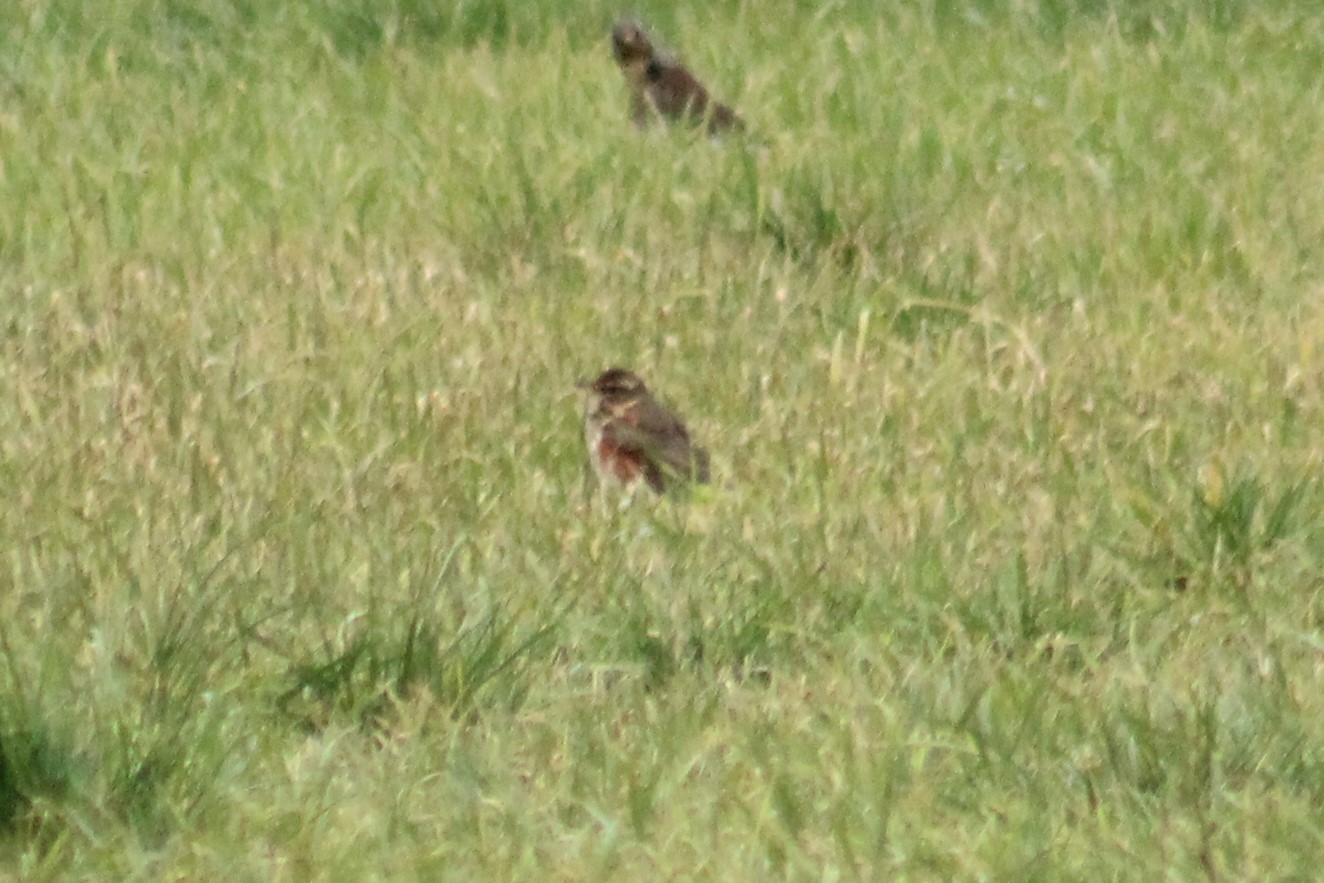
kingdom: Animalia
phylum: Chordata
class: Aves
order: Passeriformes
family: Turdidae
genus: Turdus
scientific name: Turdus iliacus
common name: Redwing
